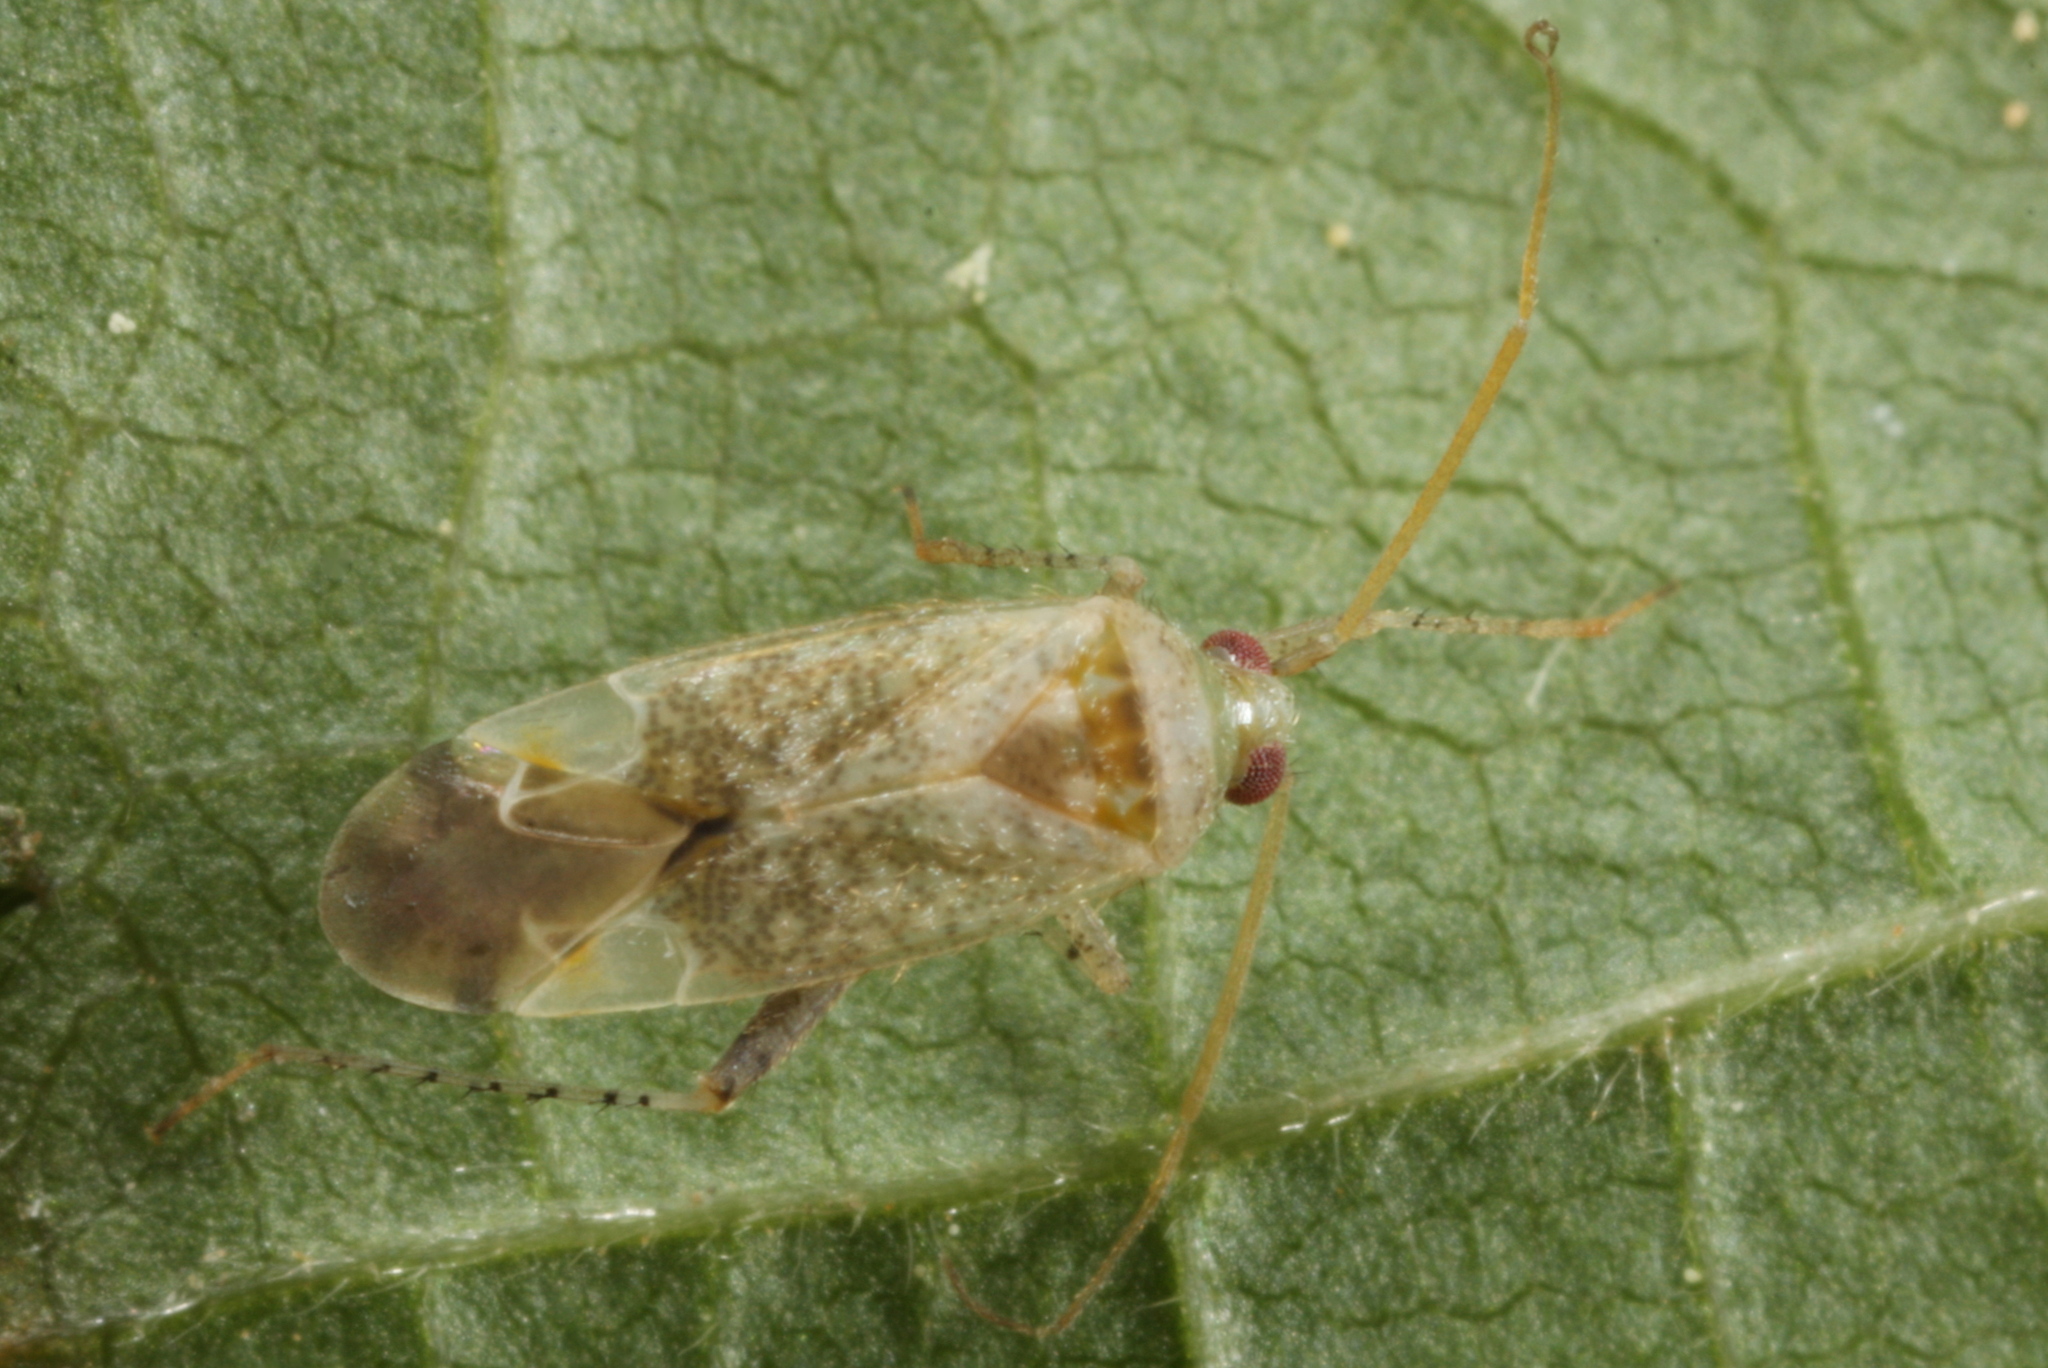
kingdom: Animalia
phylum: Arthropoda
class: Insecta
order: Hemiptera
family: Miridae
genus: Compsidolon
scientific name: Compsidolon salicellum
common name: Plant bug
